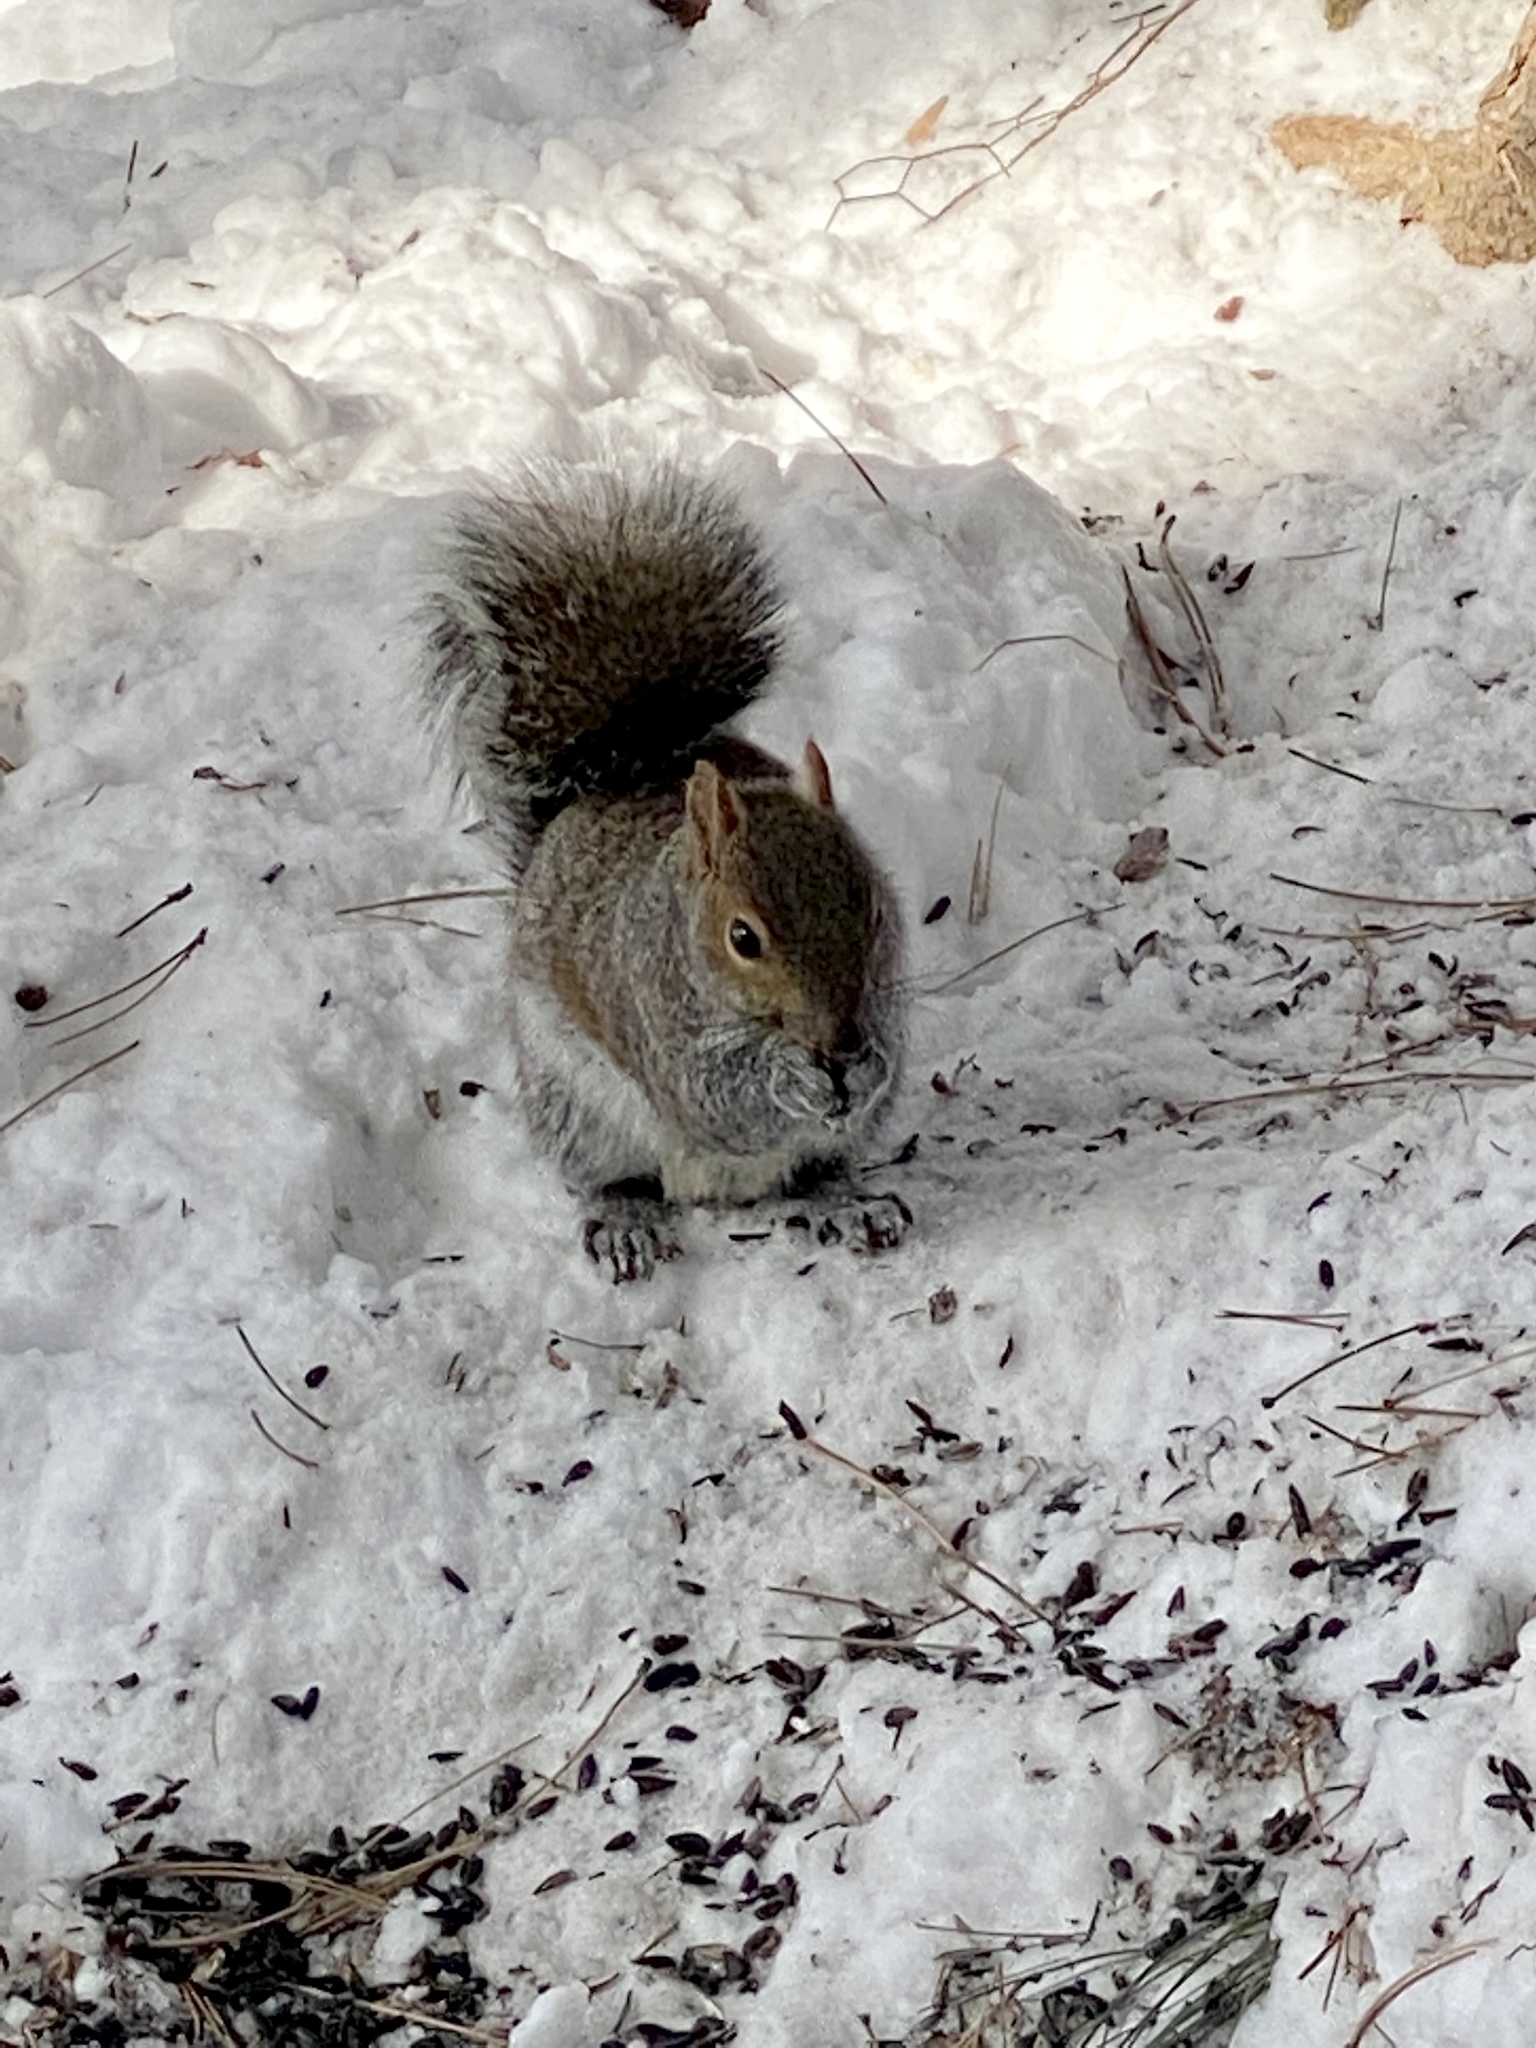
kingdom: Animalia
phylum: Chordata
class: Mammalia
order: Rodentia
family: Sciuridae
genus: Sciurus
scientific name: Sciurus carolinensis
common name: Eastern gray squirrel
